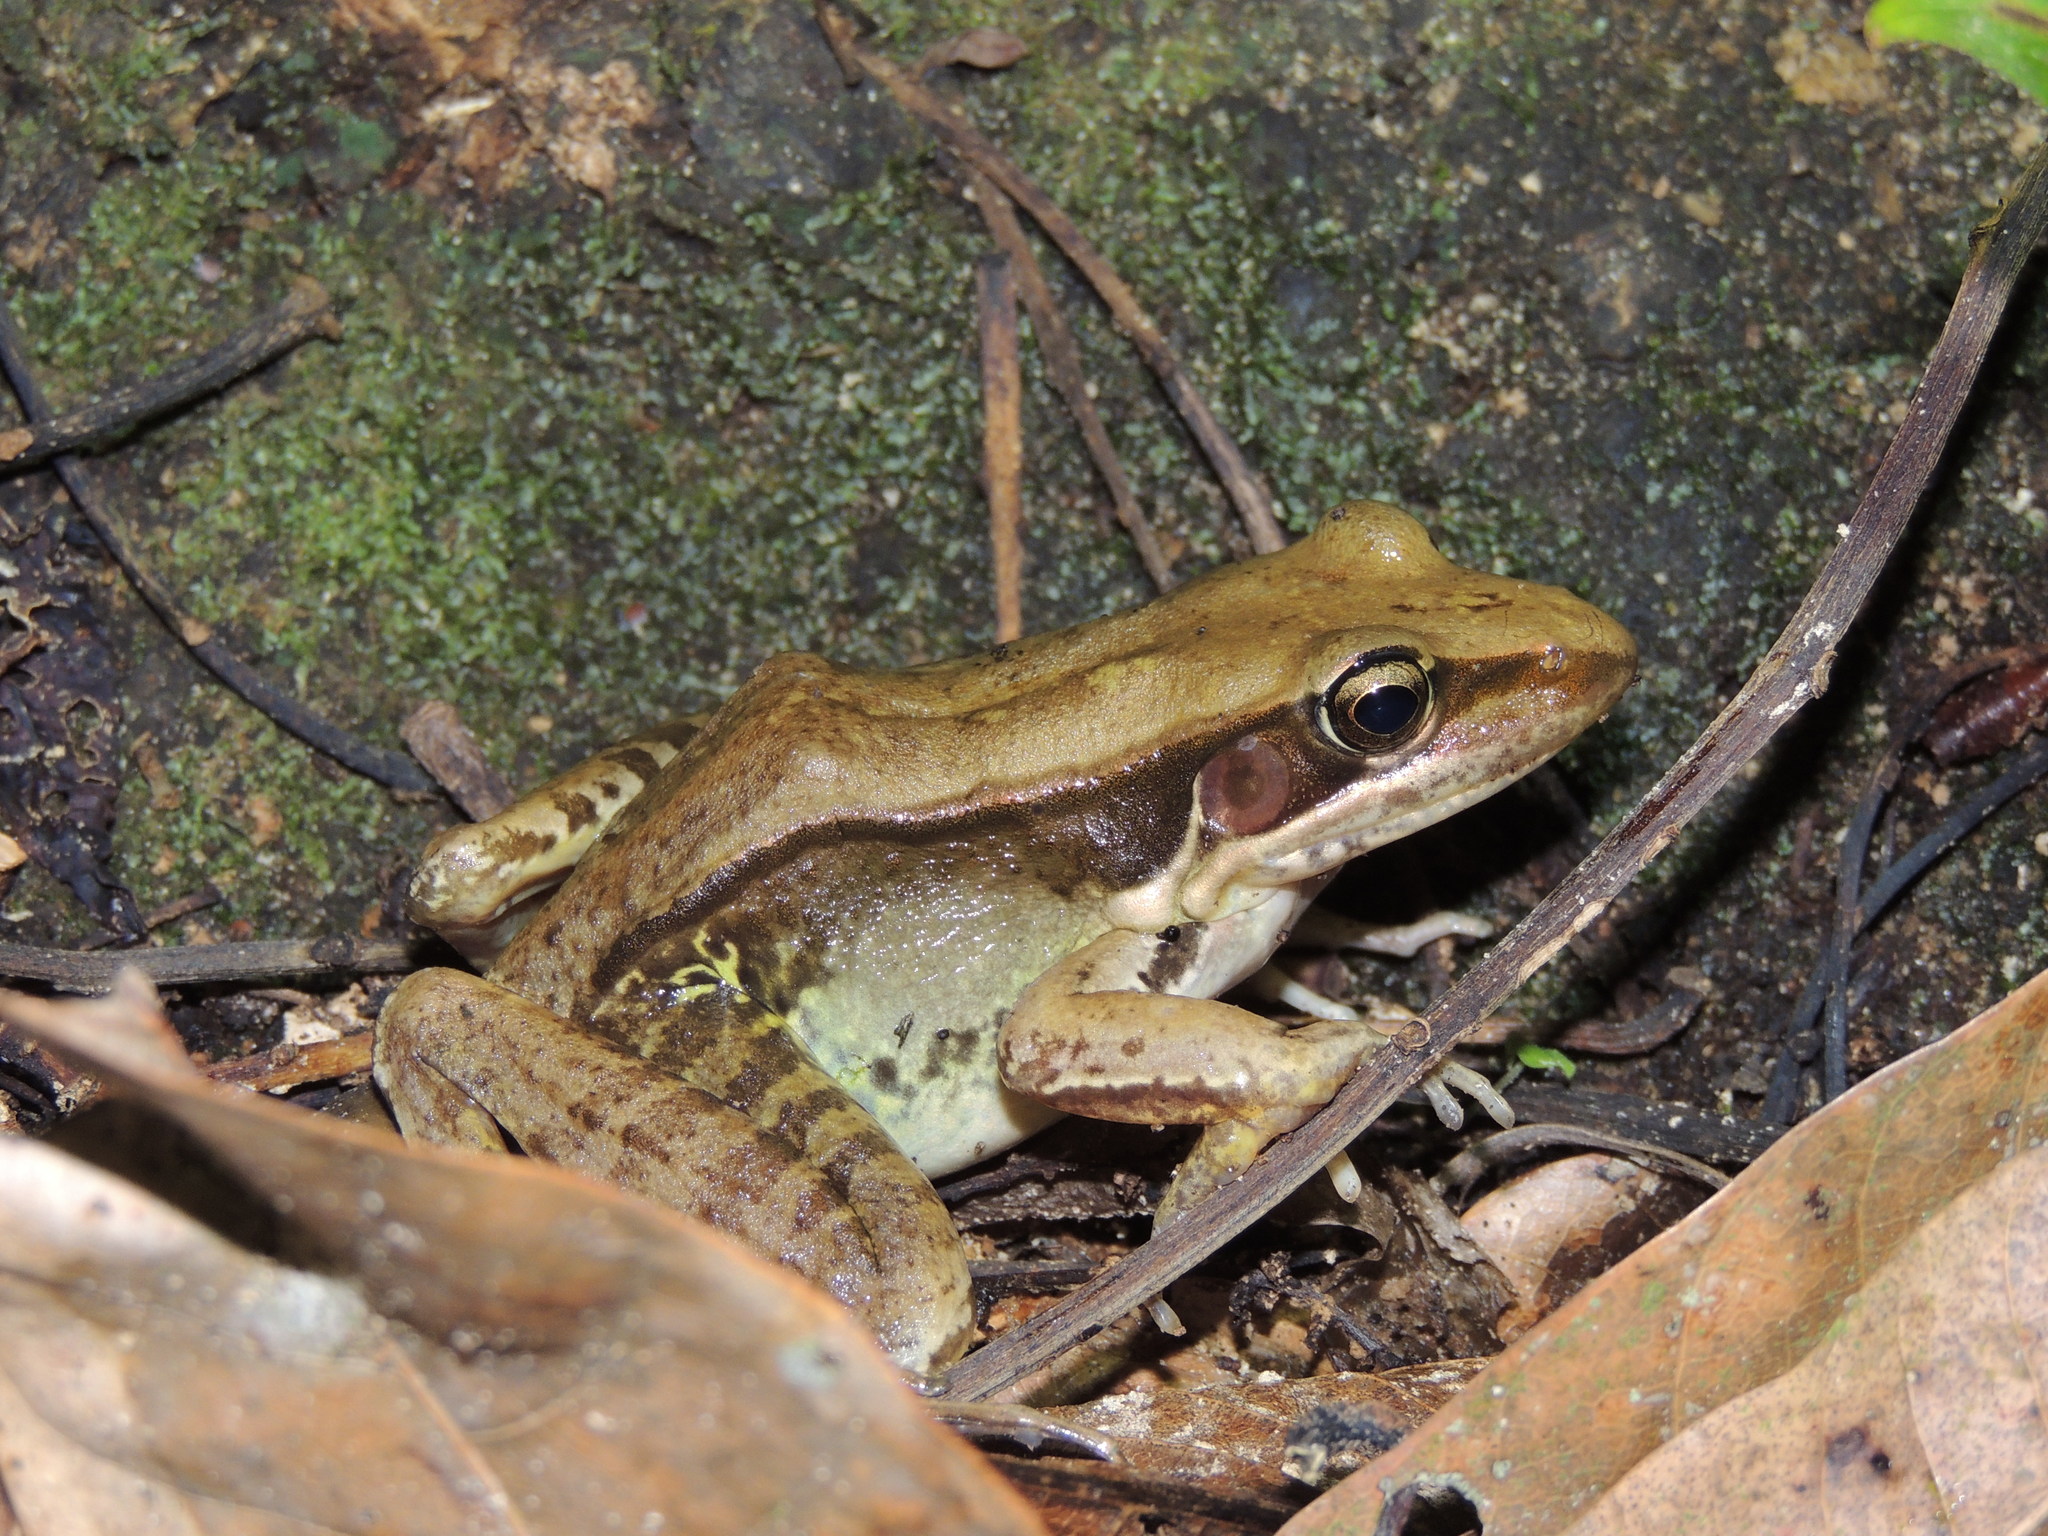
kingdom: Animalia
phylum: Chordata
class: Amphibia
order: Anura
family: Ranidae
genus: Sylvirana
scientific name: Sylvirana guentheri
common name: Guenther's amoy frog
